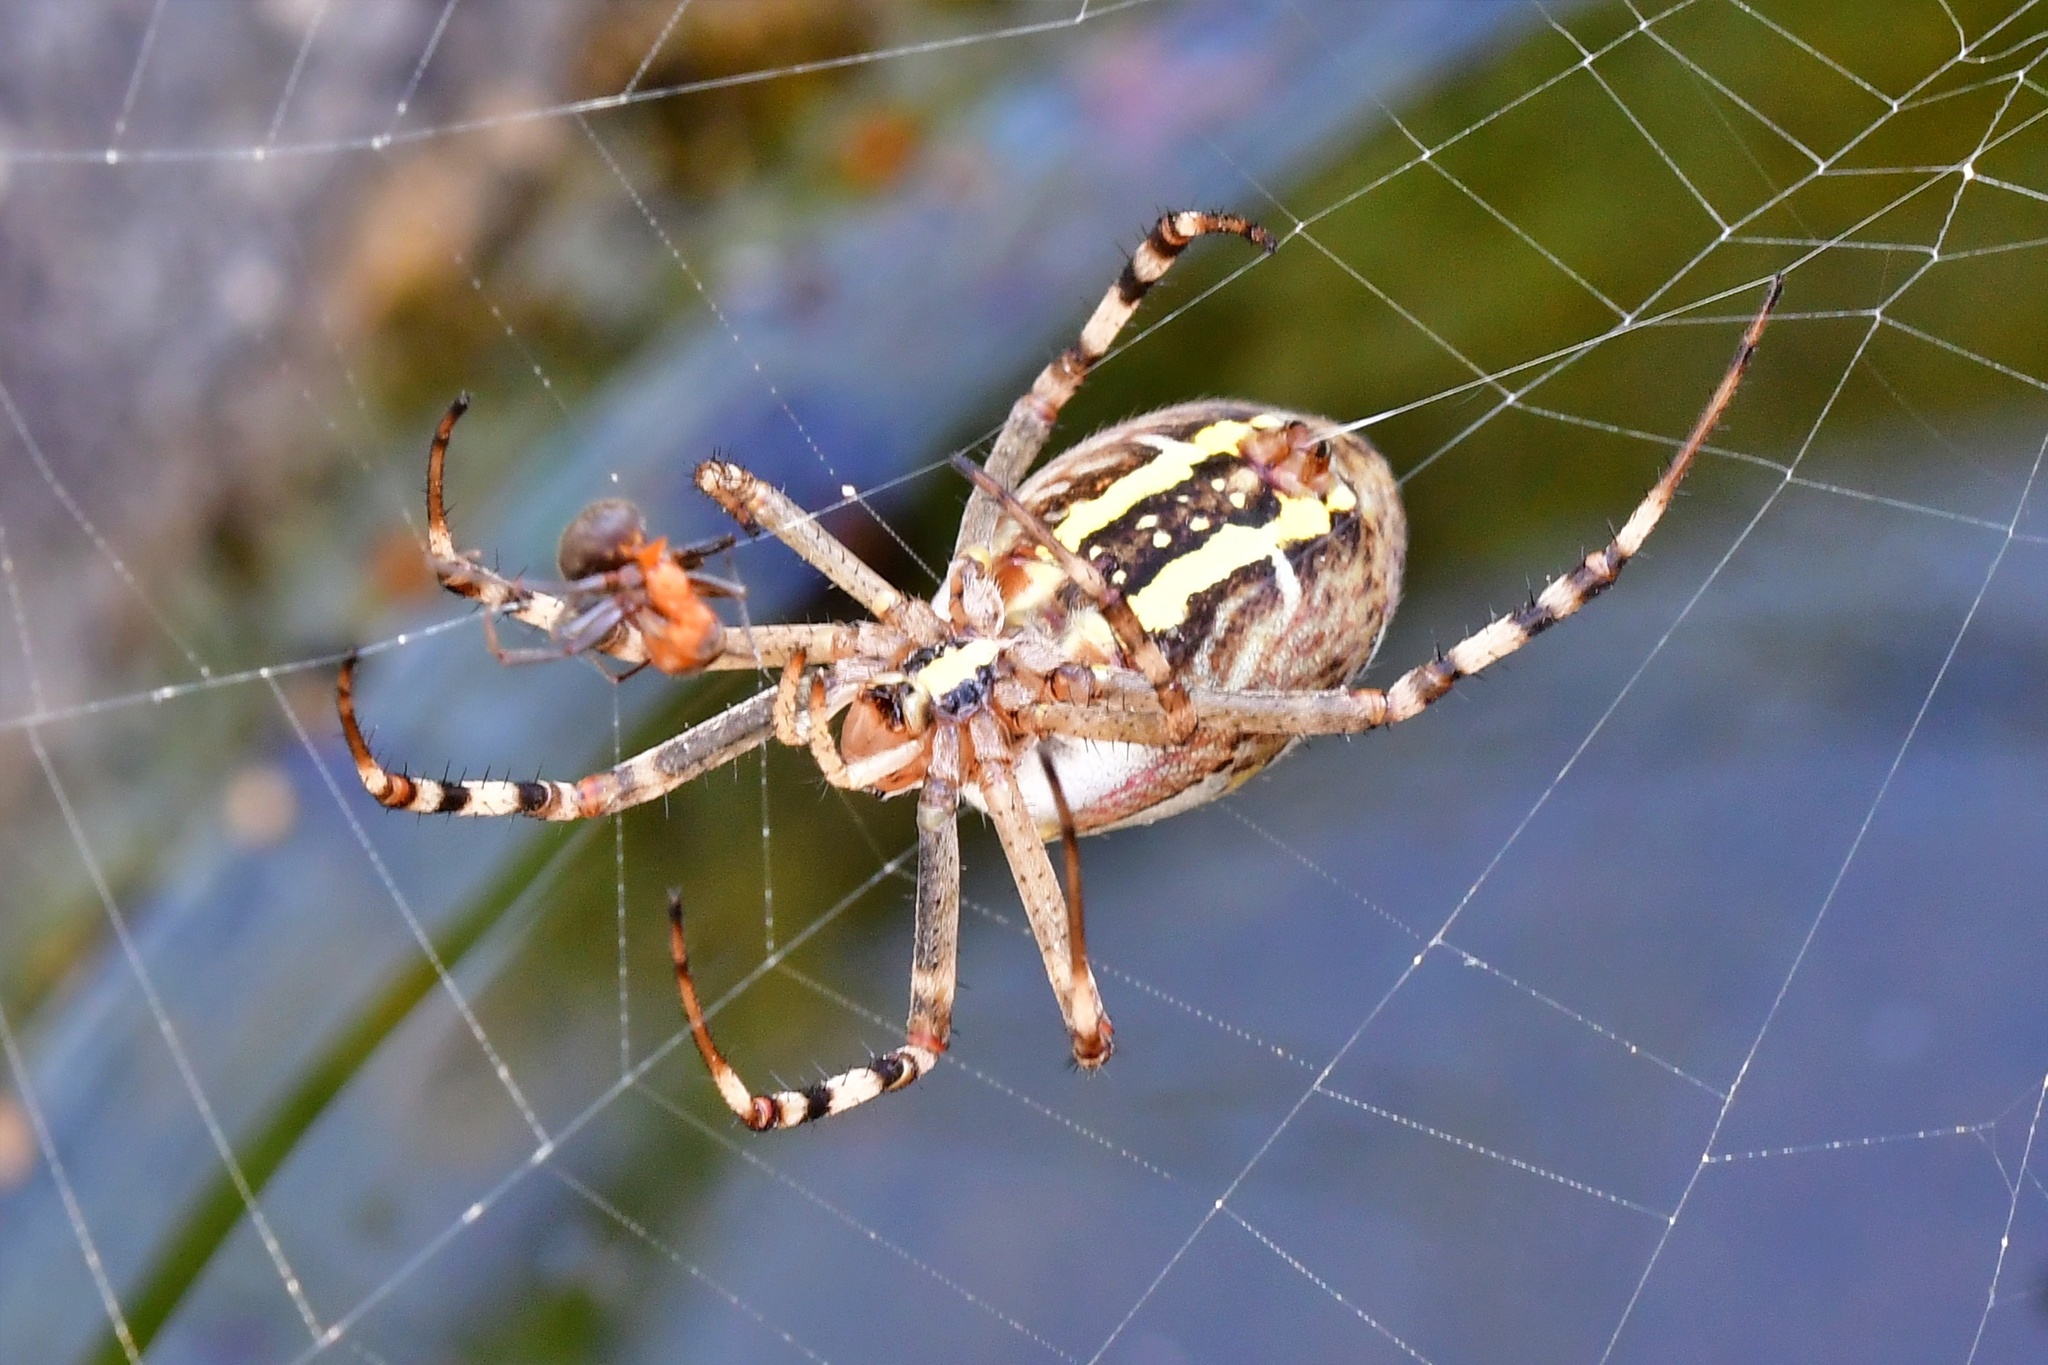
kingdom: Animalia
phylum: Arthropoda
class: Arachnida
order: Araneae
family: Araneidae
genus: Argiope
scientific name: Argiope bruennichi
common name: Wasp spider
